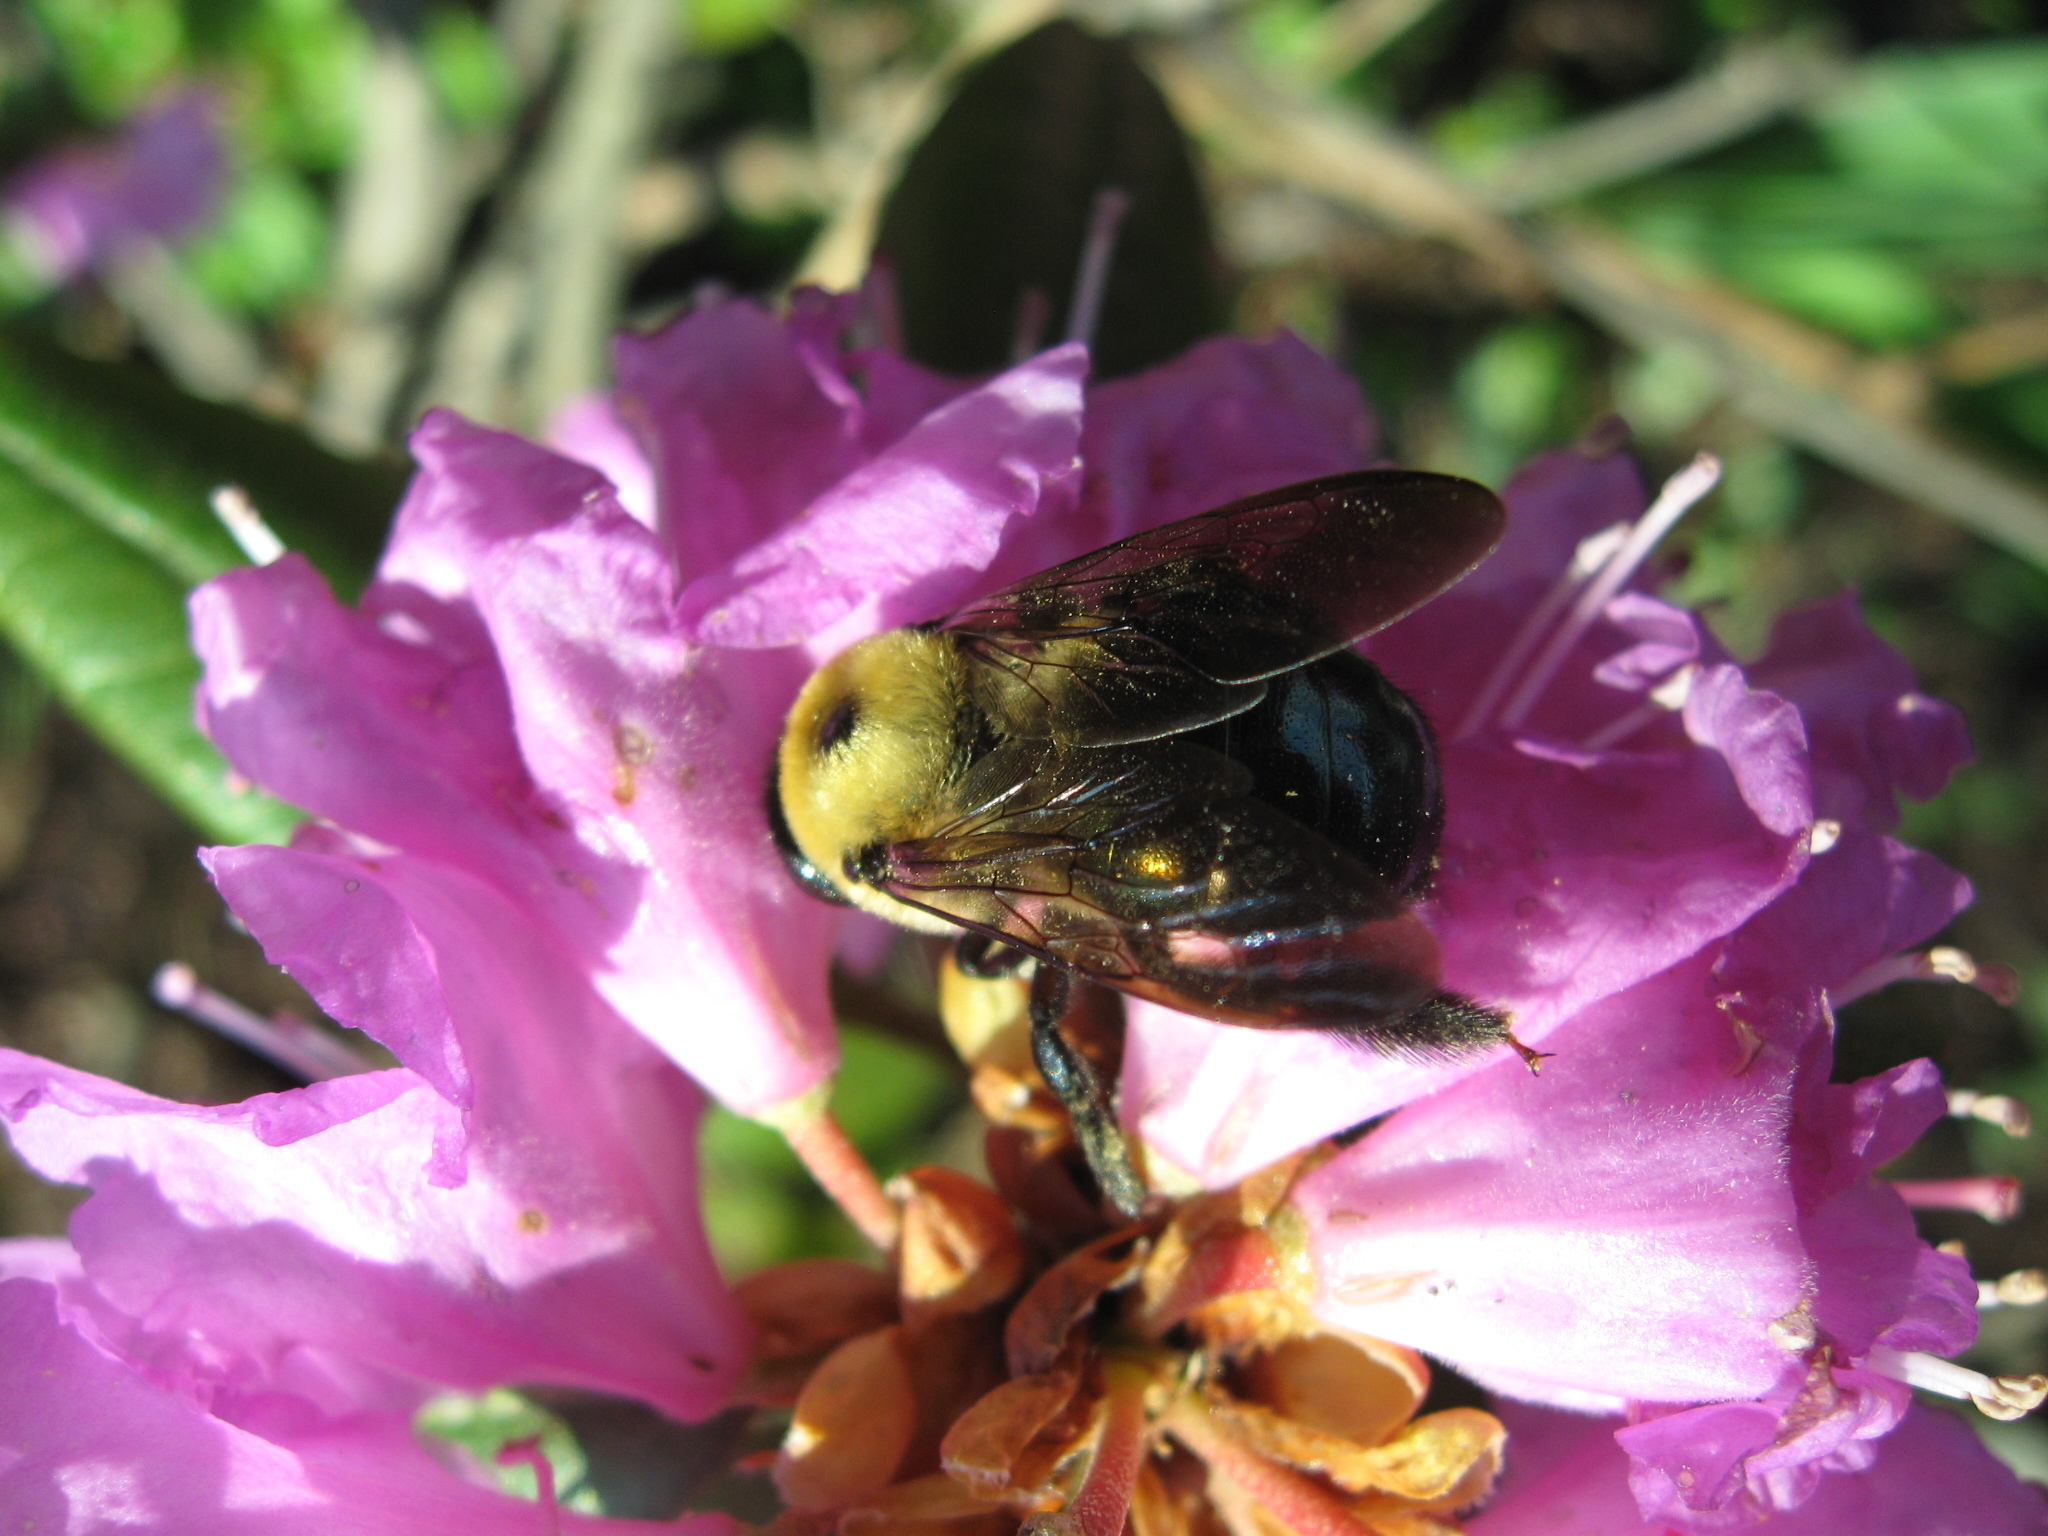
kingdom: Animalia
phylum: Arthropoda
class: Insecta
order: Hymenoptera
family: Apidae
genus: Xylocopa
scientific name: Xylocopa virginica
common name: Carpenter bee
